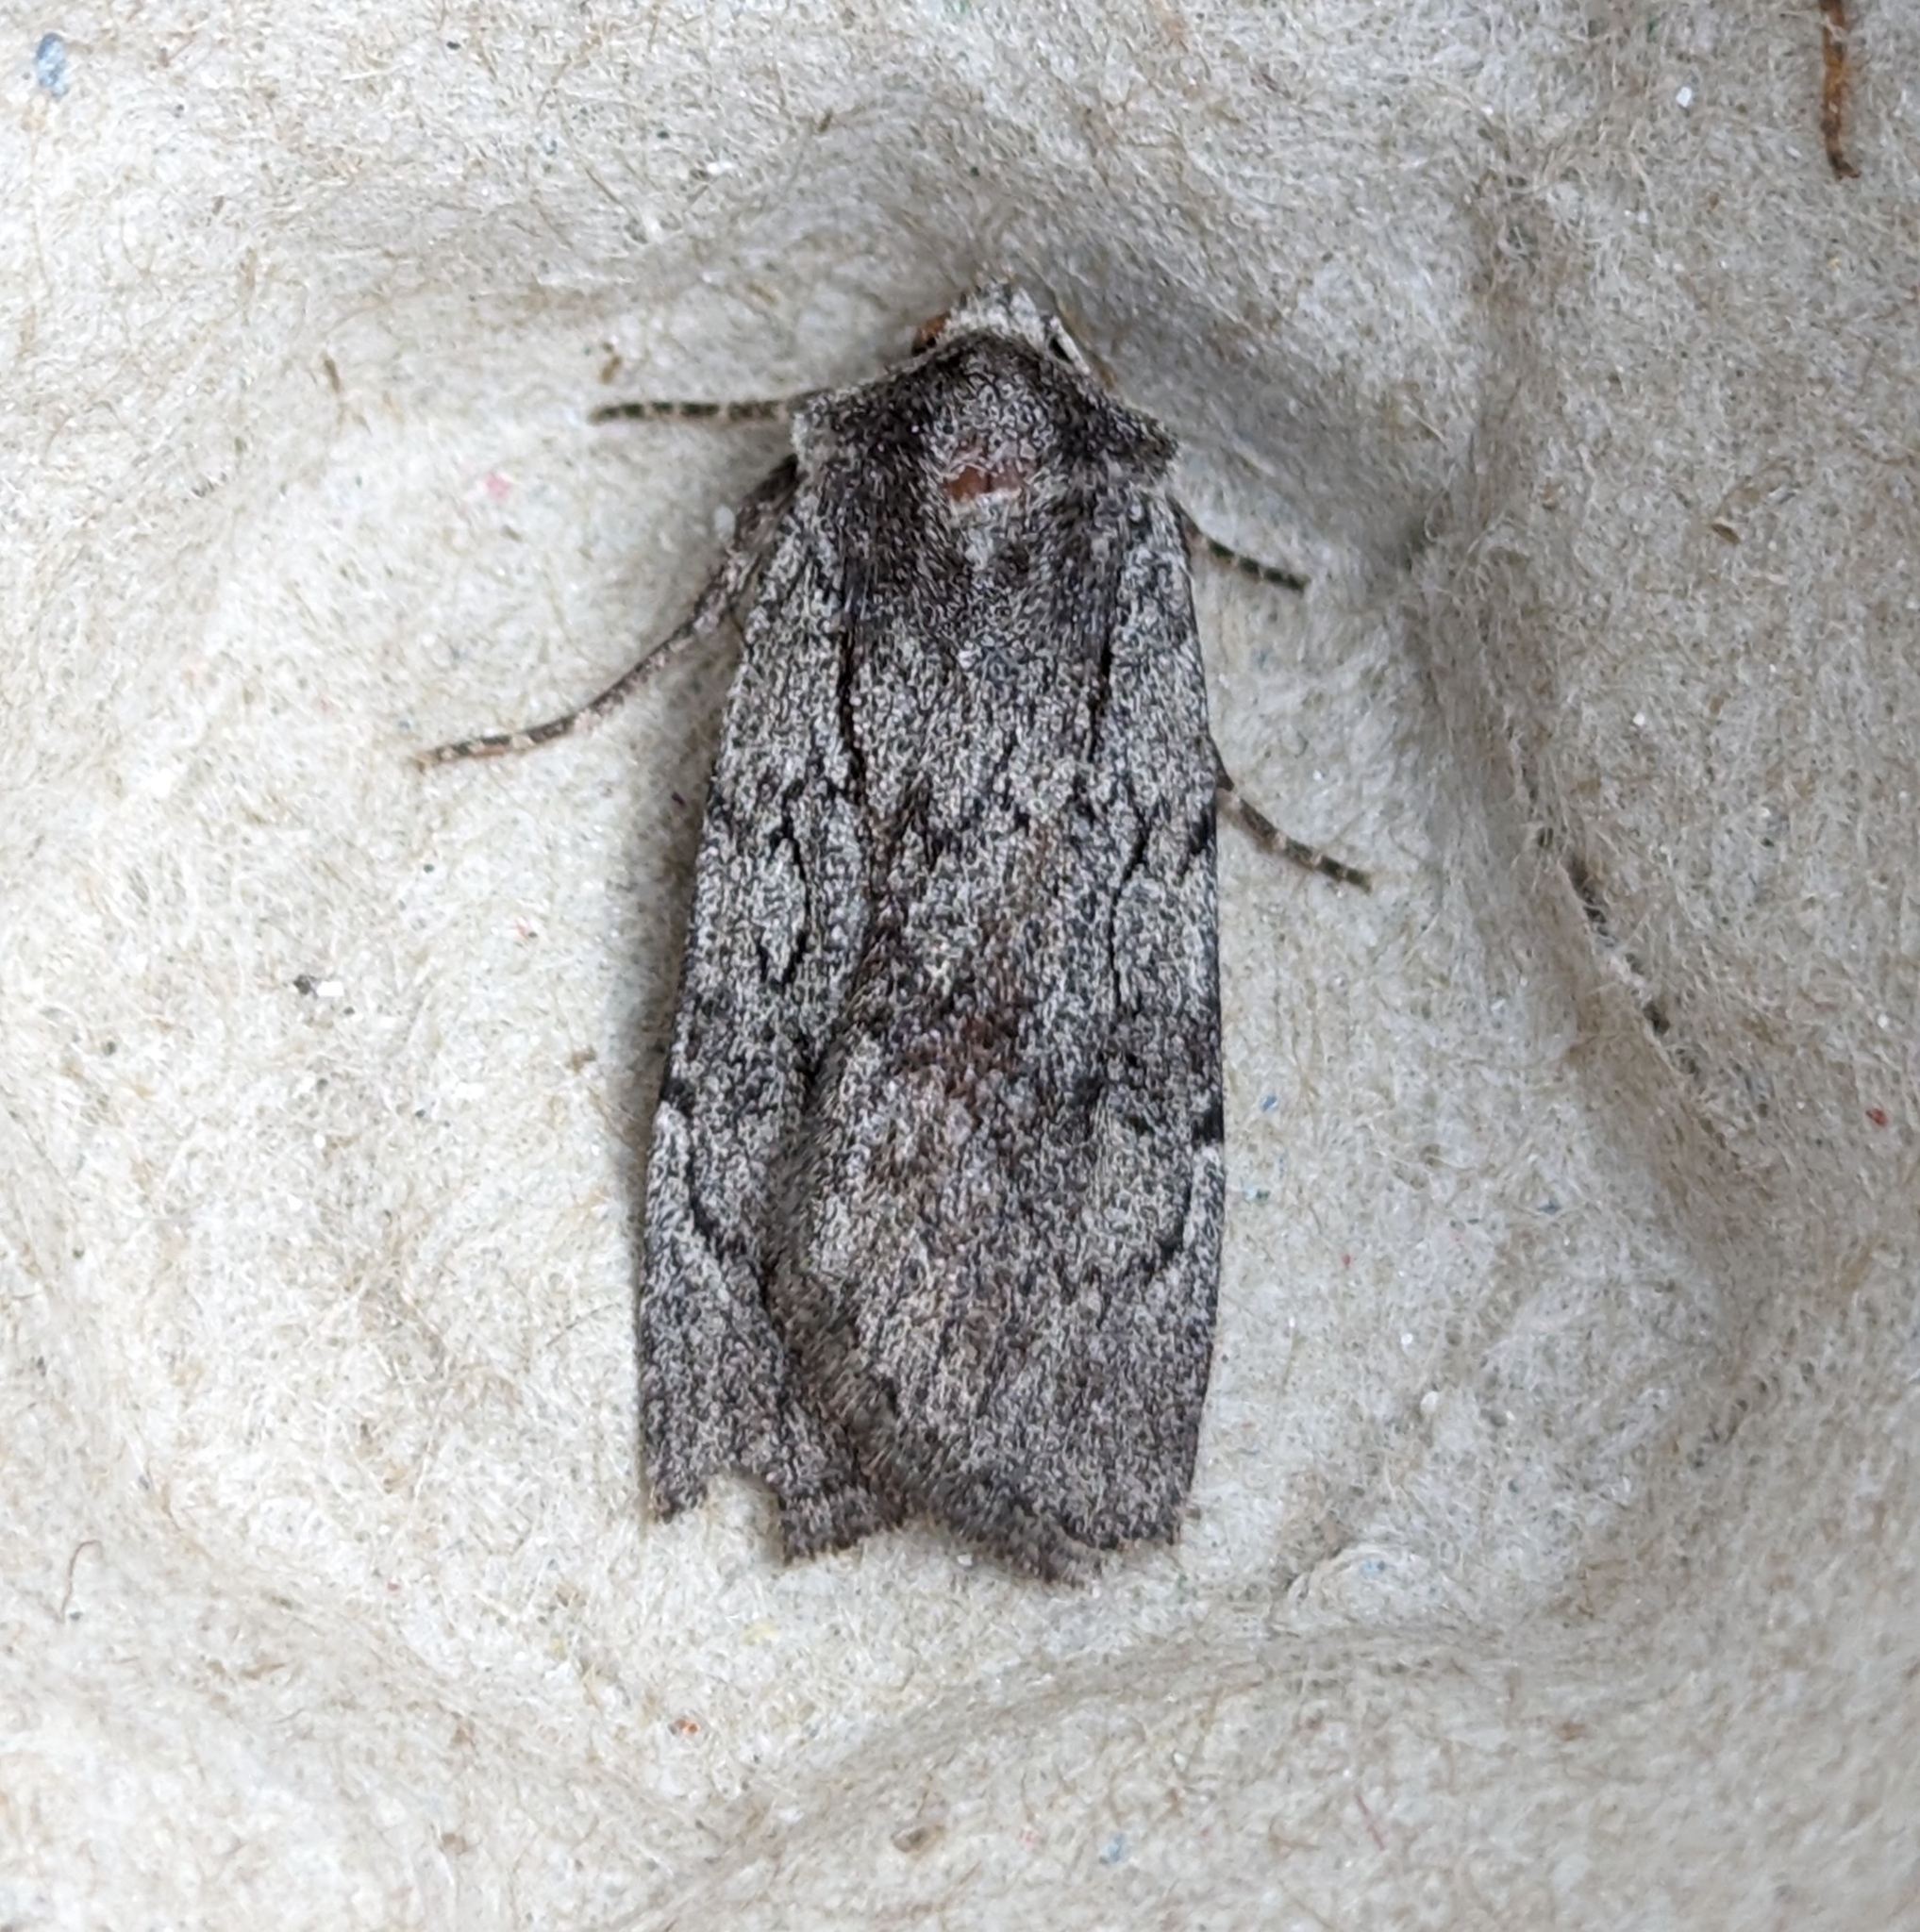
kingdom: Animalia
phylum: Arthropoda
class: Insecta
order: Lepidoptera
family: Noctuidae
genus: Setagrotis
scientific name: Setagrotis pallidicollis
